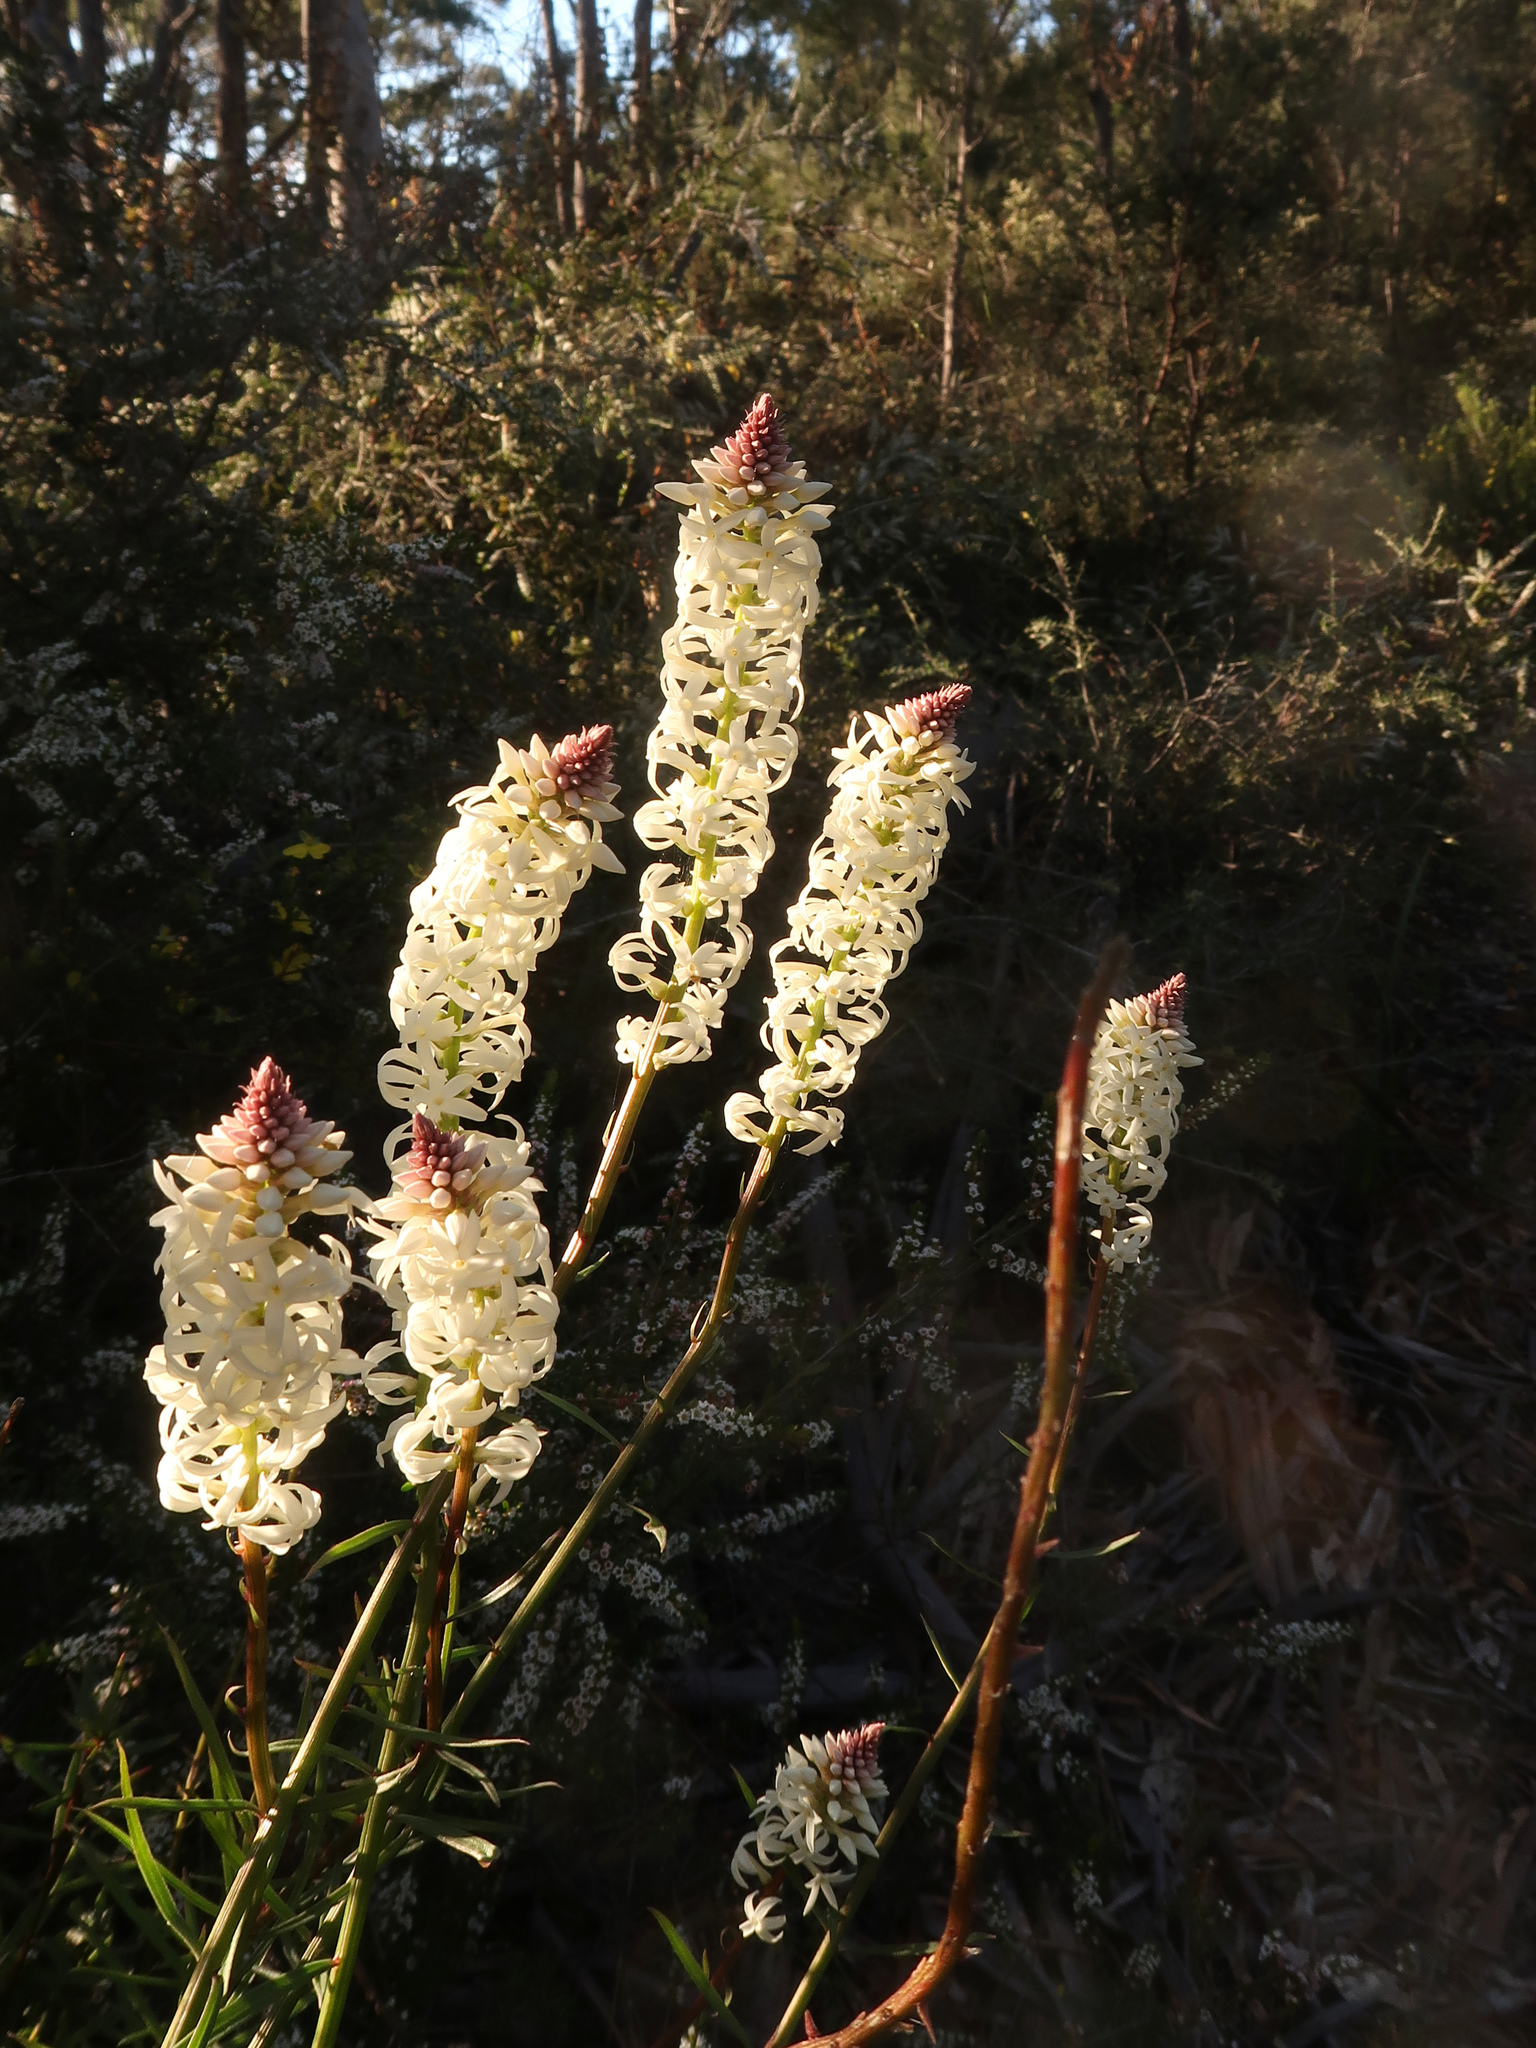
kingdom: Plantae
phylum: Tracheophyta
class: Magnoliopsida
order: Celastrales
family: Celastraceae
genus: Stackhousia
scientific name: Stackhousia monogyna
